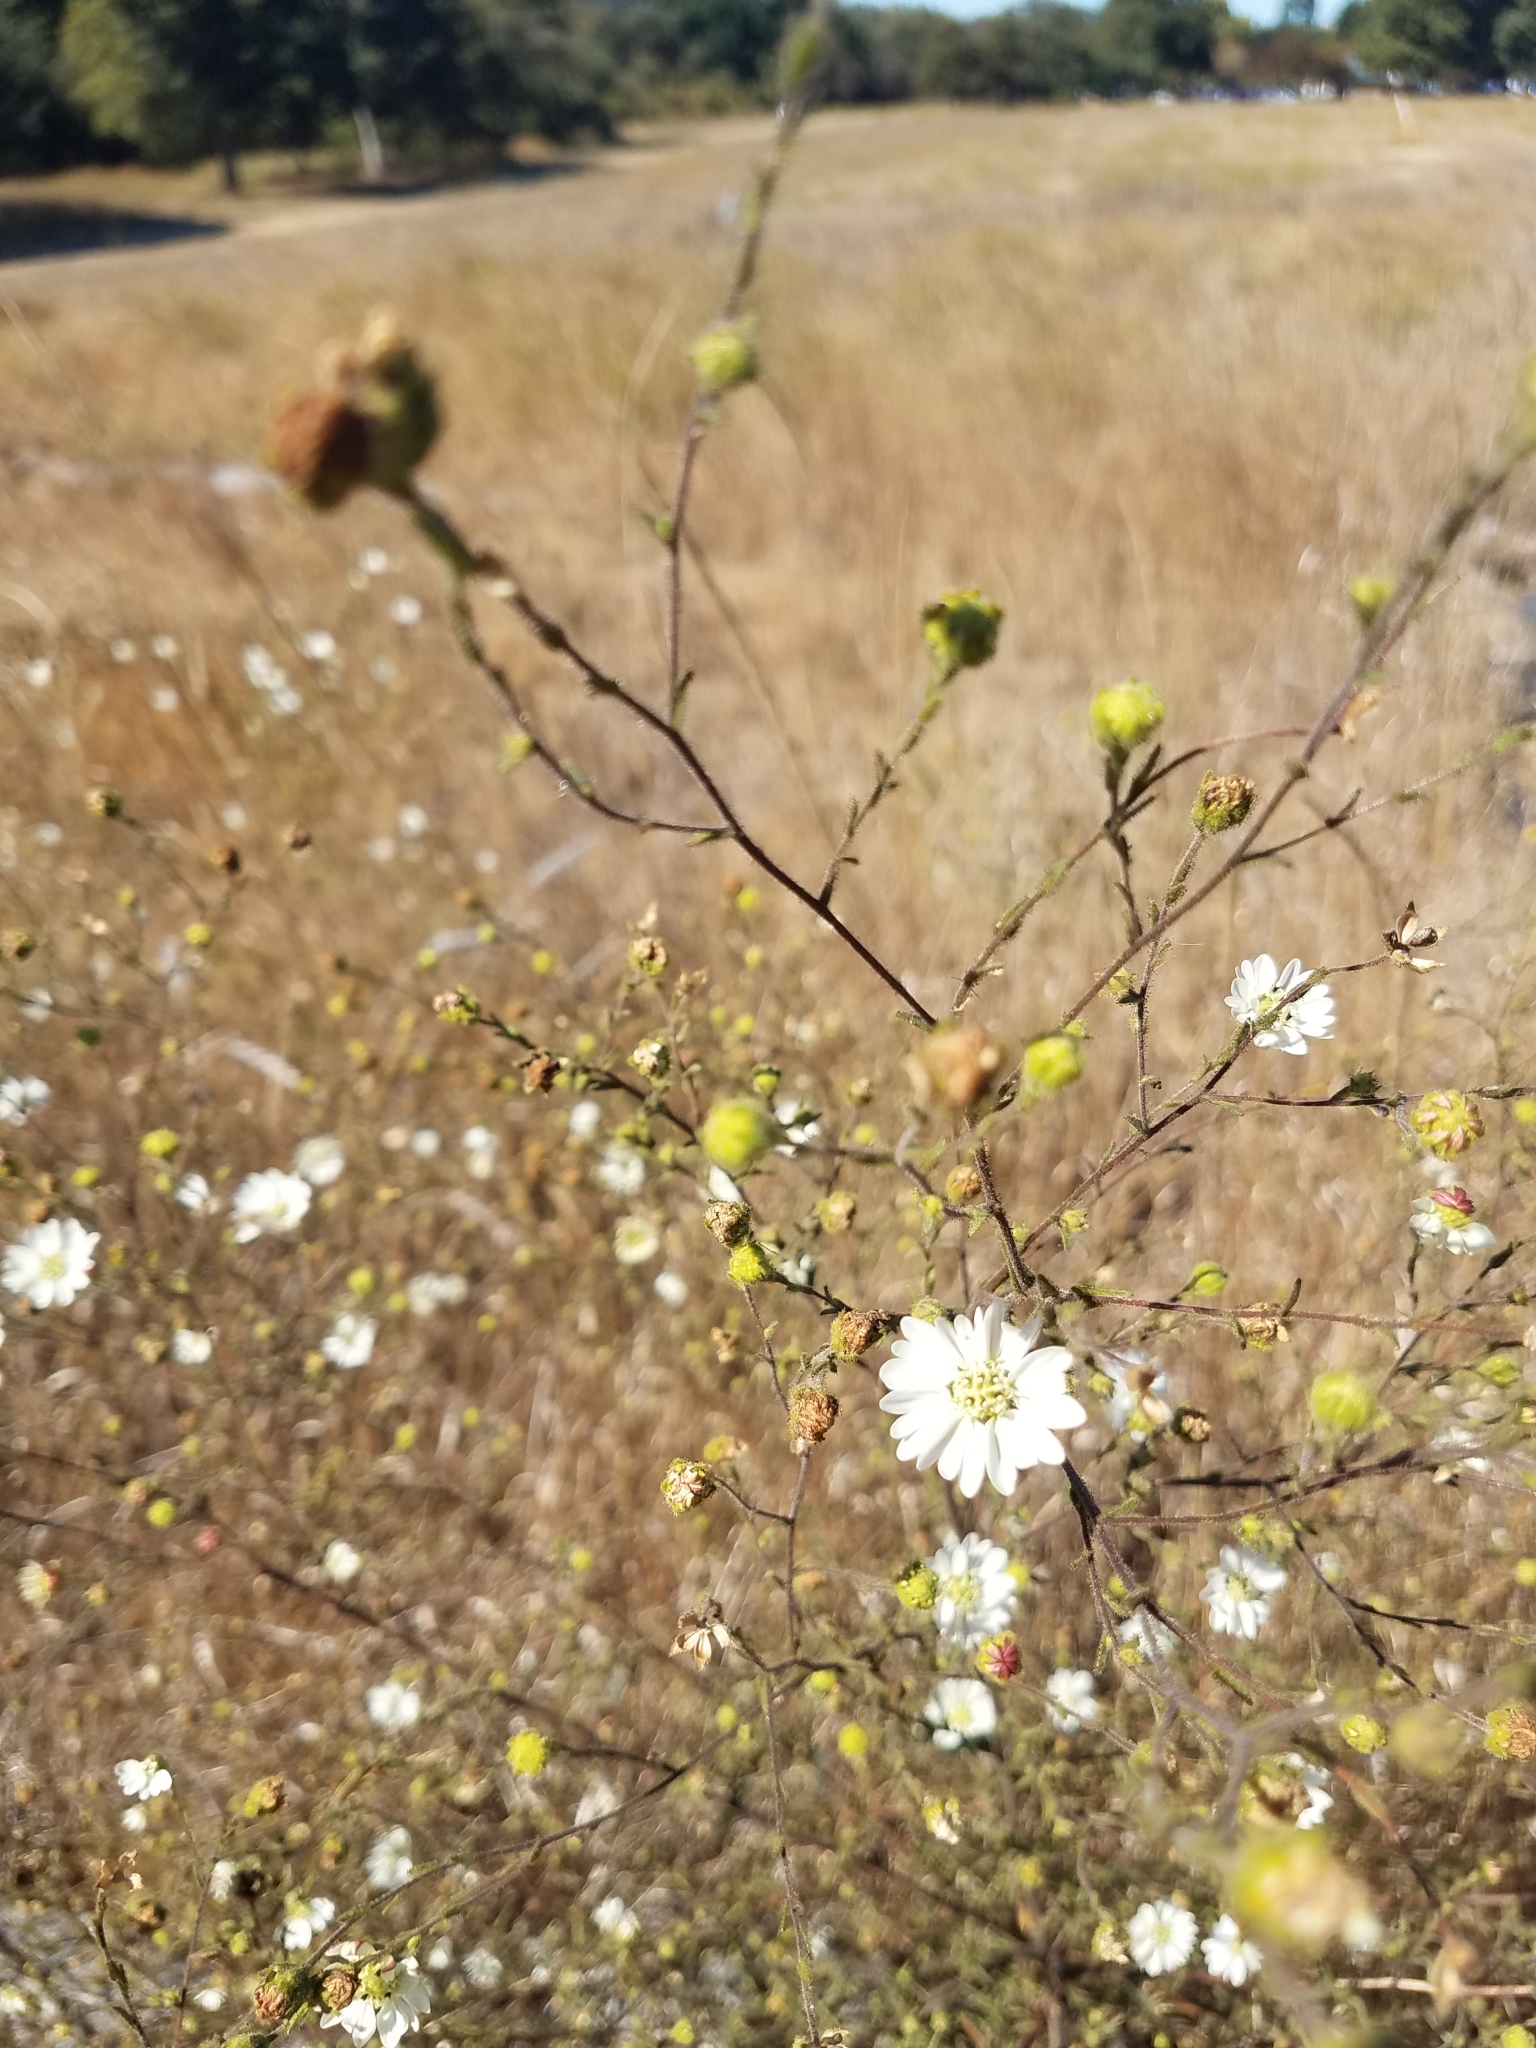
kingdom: Plantae
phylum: Tracheophyta
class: Magnoliopsida
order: Asterales
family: Asteraceae
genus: Hemizonia
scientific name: Hemizonia congesta
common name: Hayfield tarweed
